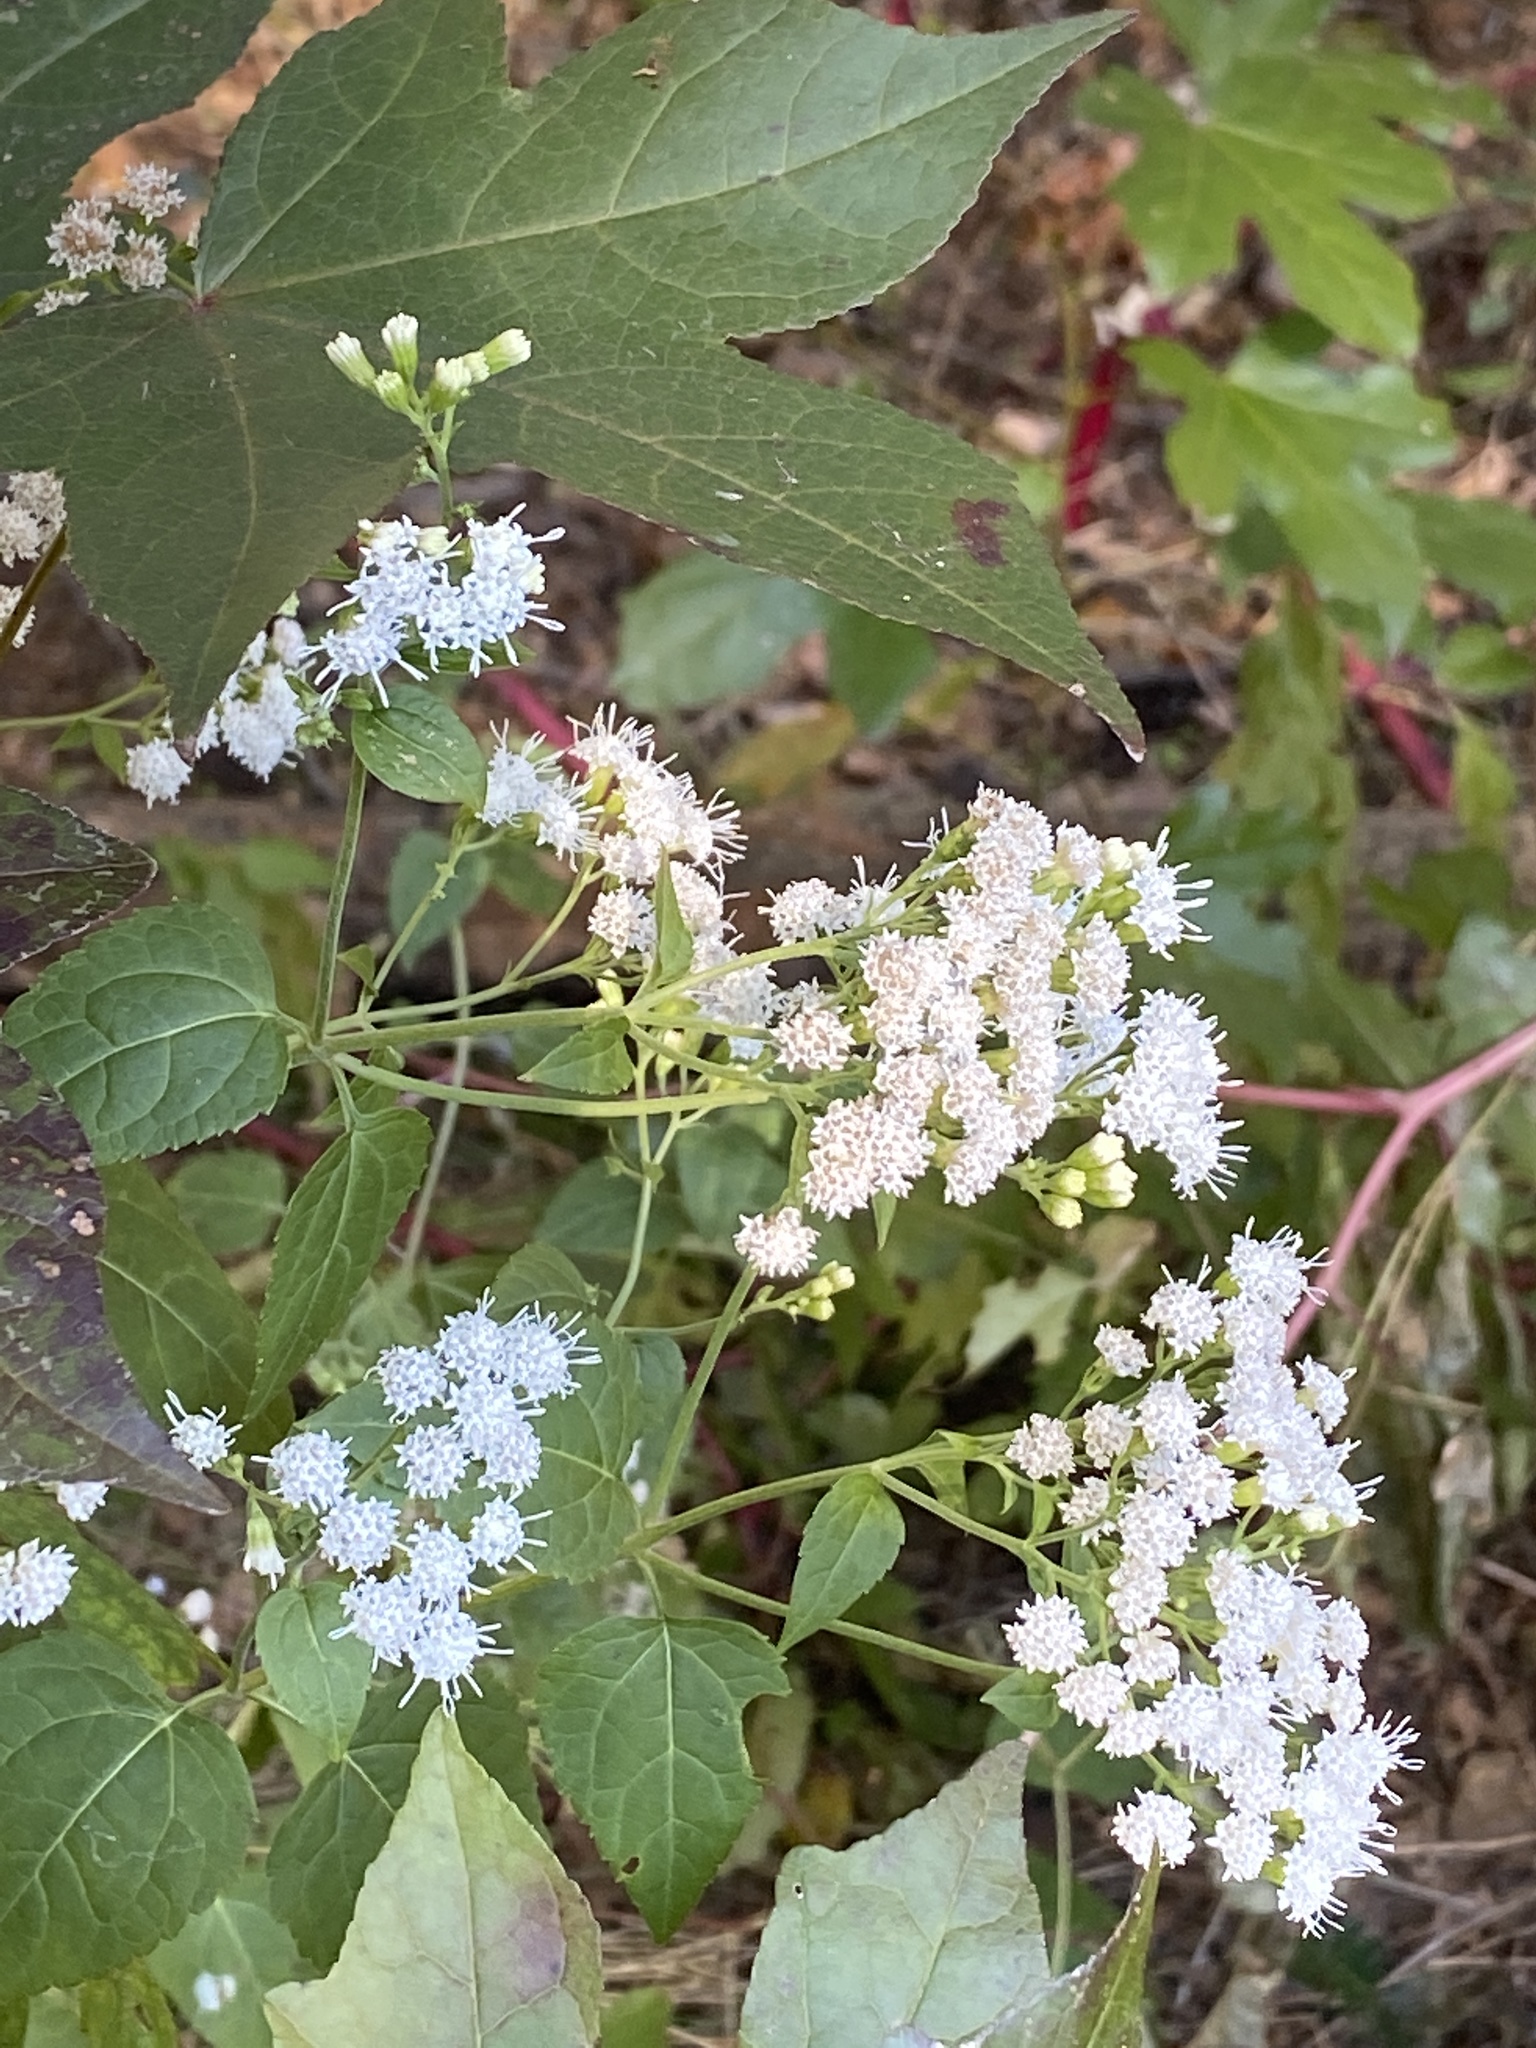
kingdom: Plantae
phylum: Tracheophyta
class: Magnoliopsida
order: Asterales
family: Asteraceae
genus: Ageratina
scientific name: Ageratina altissima
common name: White snakeroot
